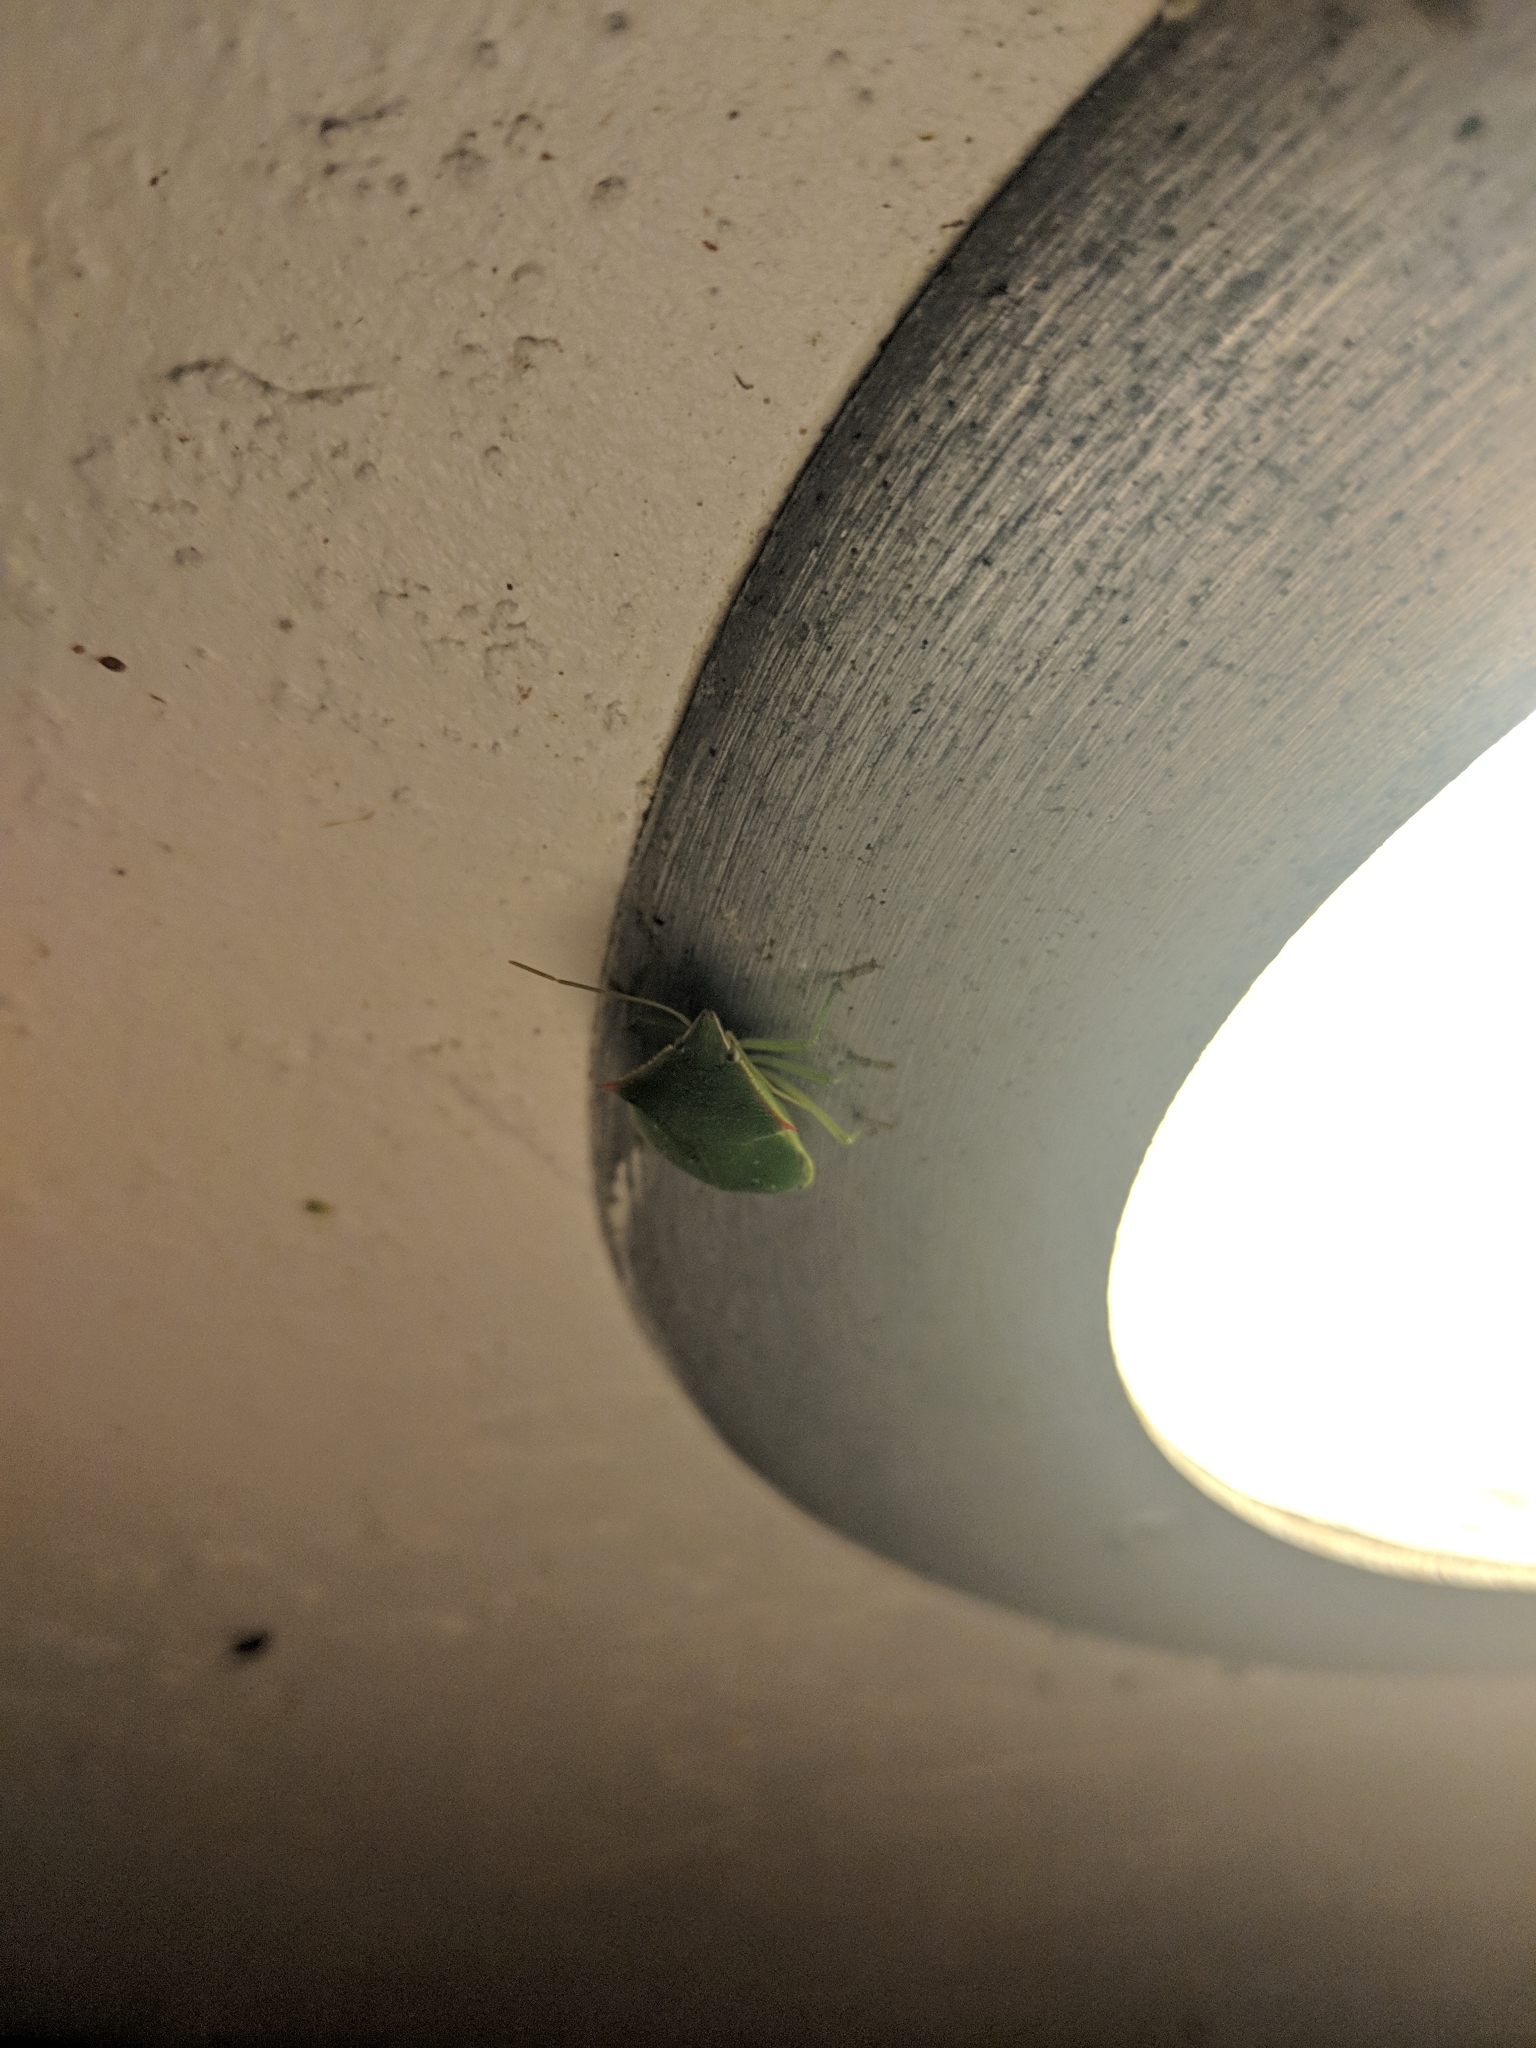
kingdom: Animalia
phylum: Arthropoda
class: Insecta
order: Hemiptera
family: Pentatomidae
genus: Loxa
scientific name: Loxa flavicollis
